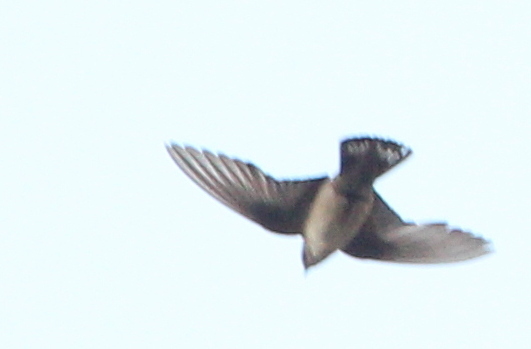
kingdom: Animalia
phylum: Chordata
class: Aves
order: Passeriformes
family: Hirundinidae
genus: Ptyonoprogne
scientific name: Ptyonoprogne rupestris
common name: Eurasian crag martin
